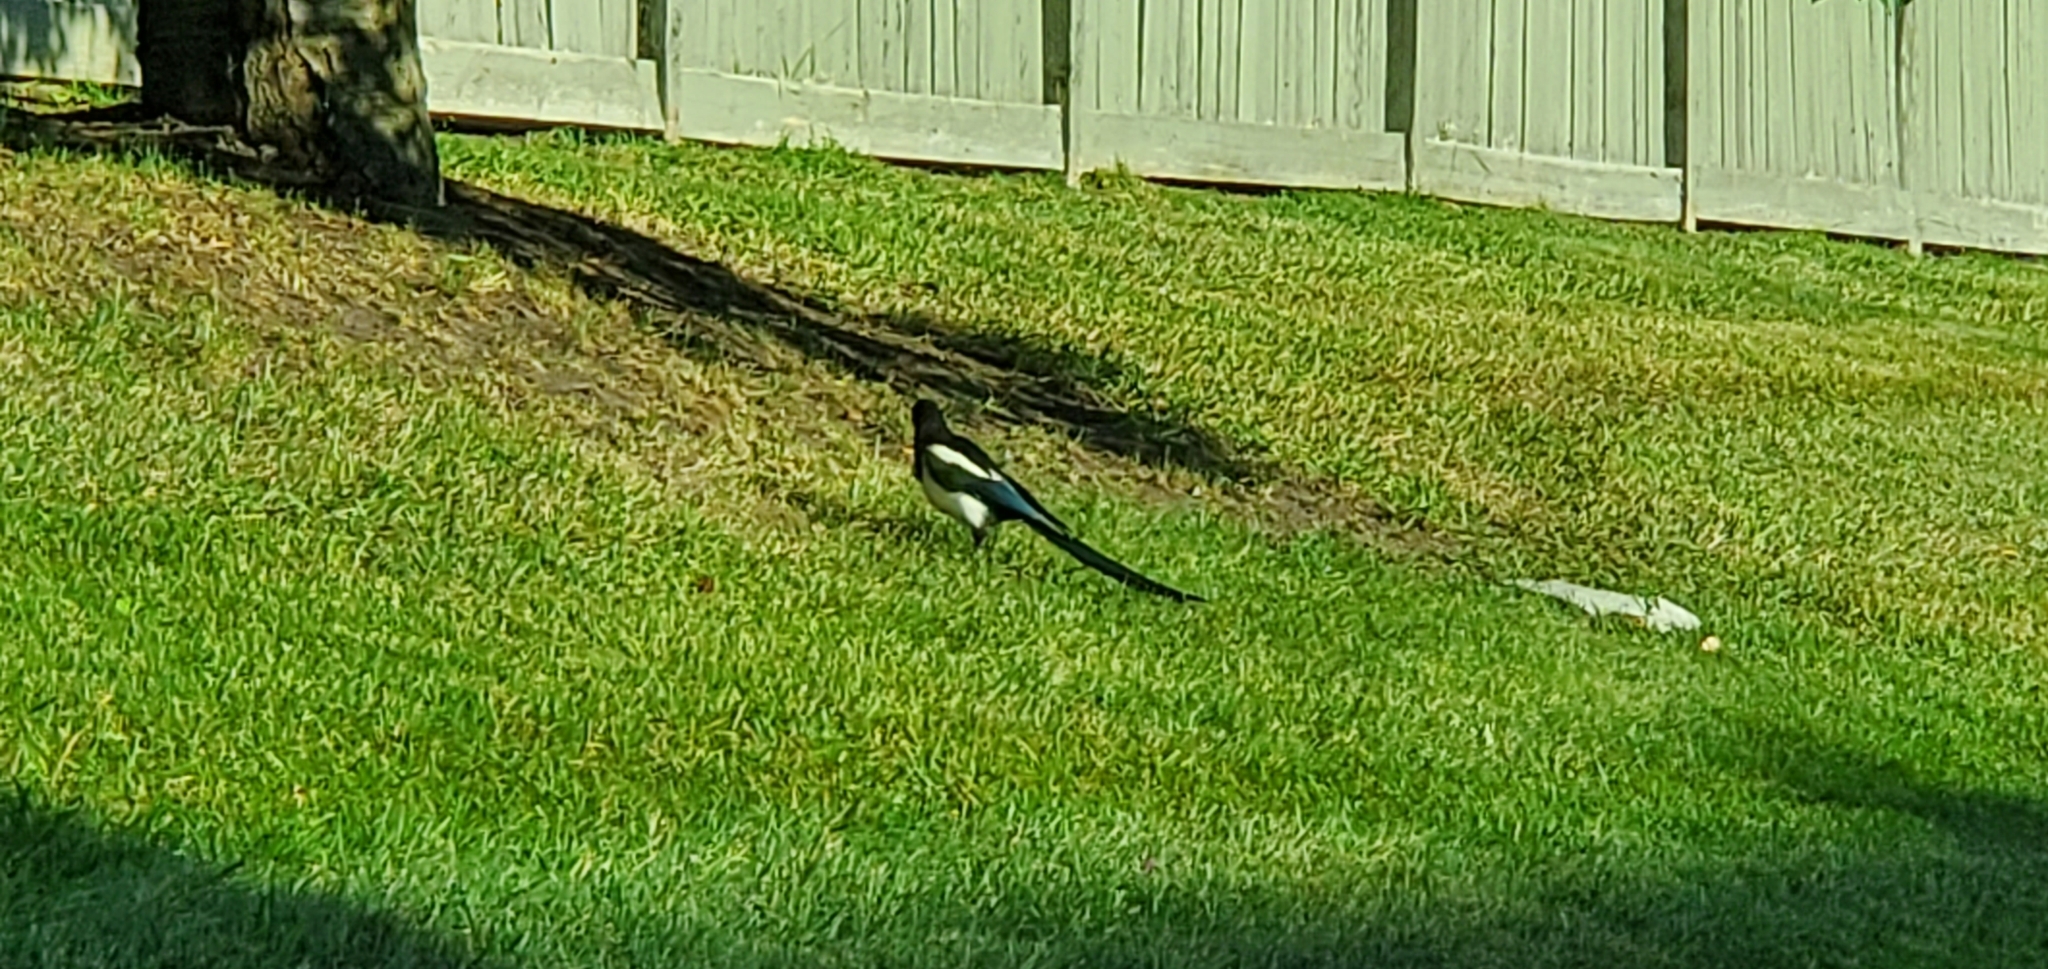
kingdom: Animalia
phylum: Chordata
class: Aves
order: Passeriformes
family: Corvidae
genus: Pica
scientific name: Pica hudsonia
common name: Black-billed magpie
